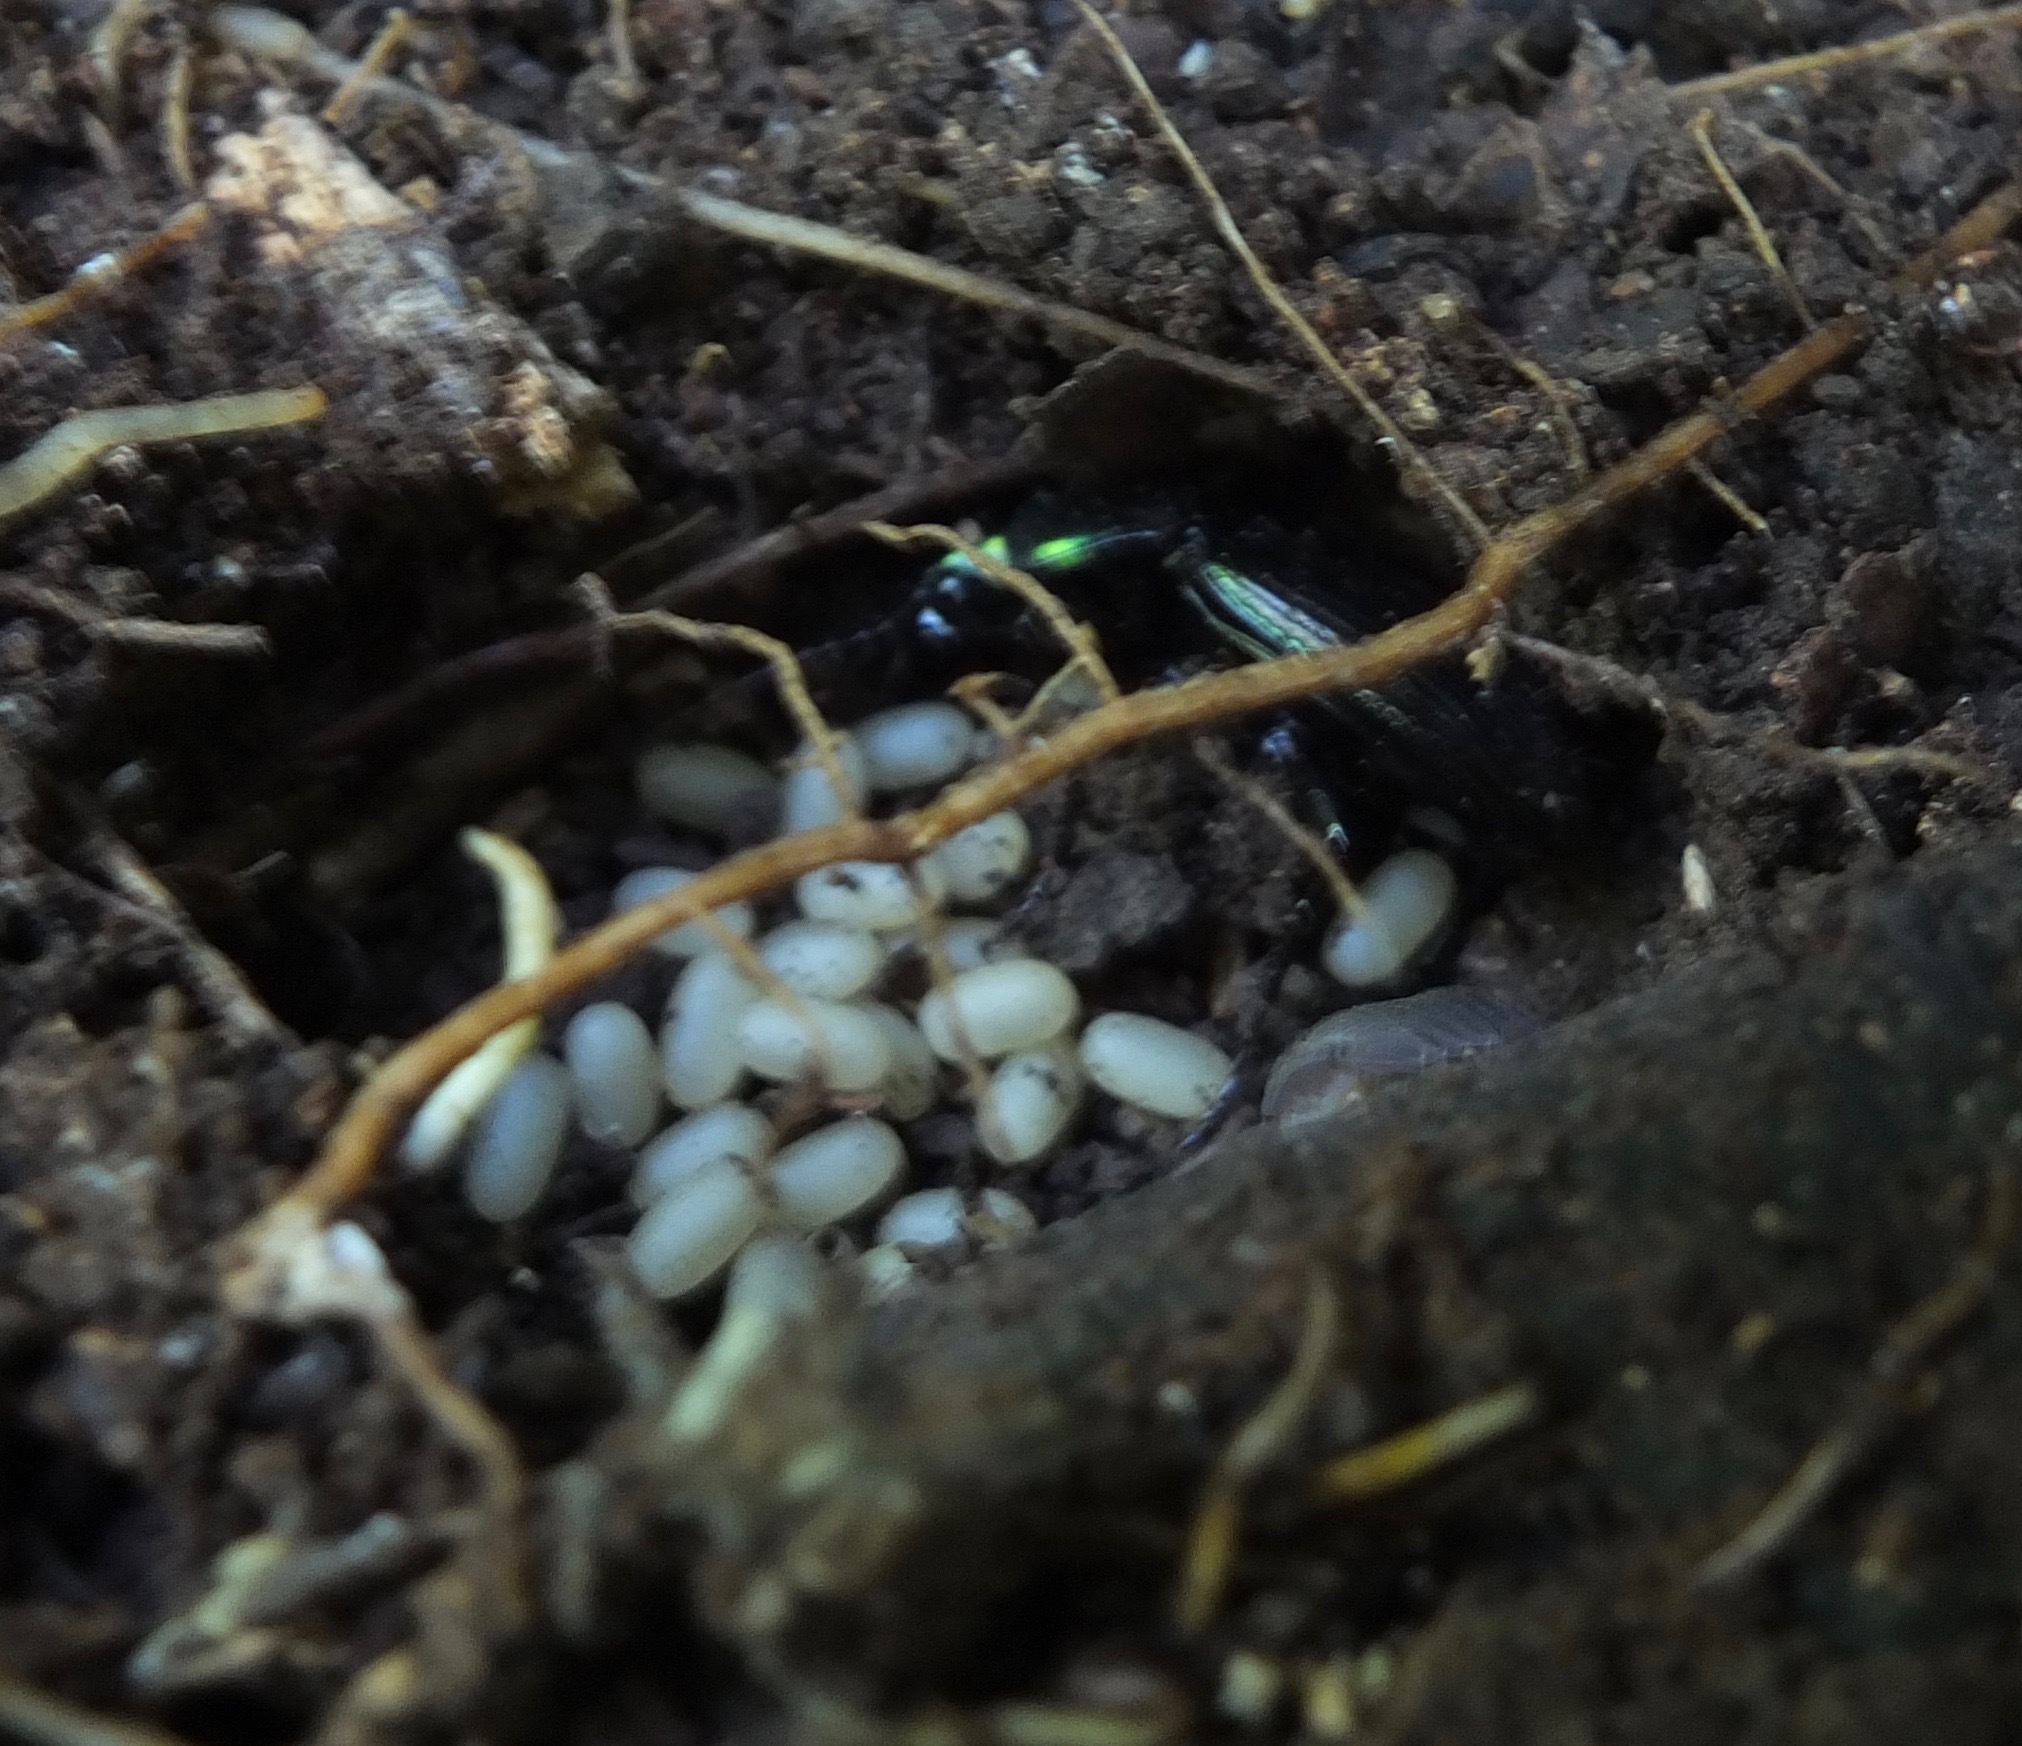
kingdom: Animalia
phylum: Arthropoda
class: Insecta
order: Coleoptera
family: Carabidae
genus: Megadromus
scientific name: Megadromus capito
